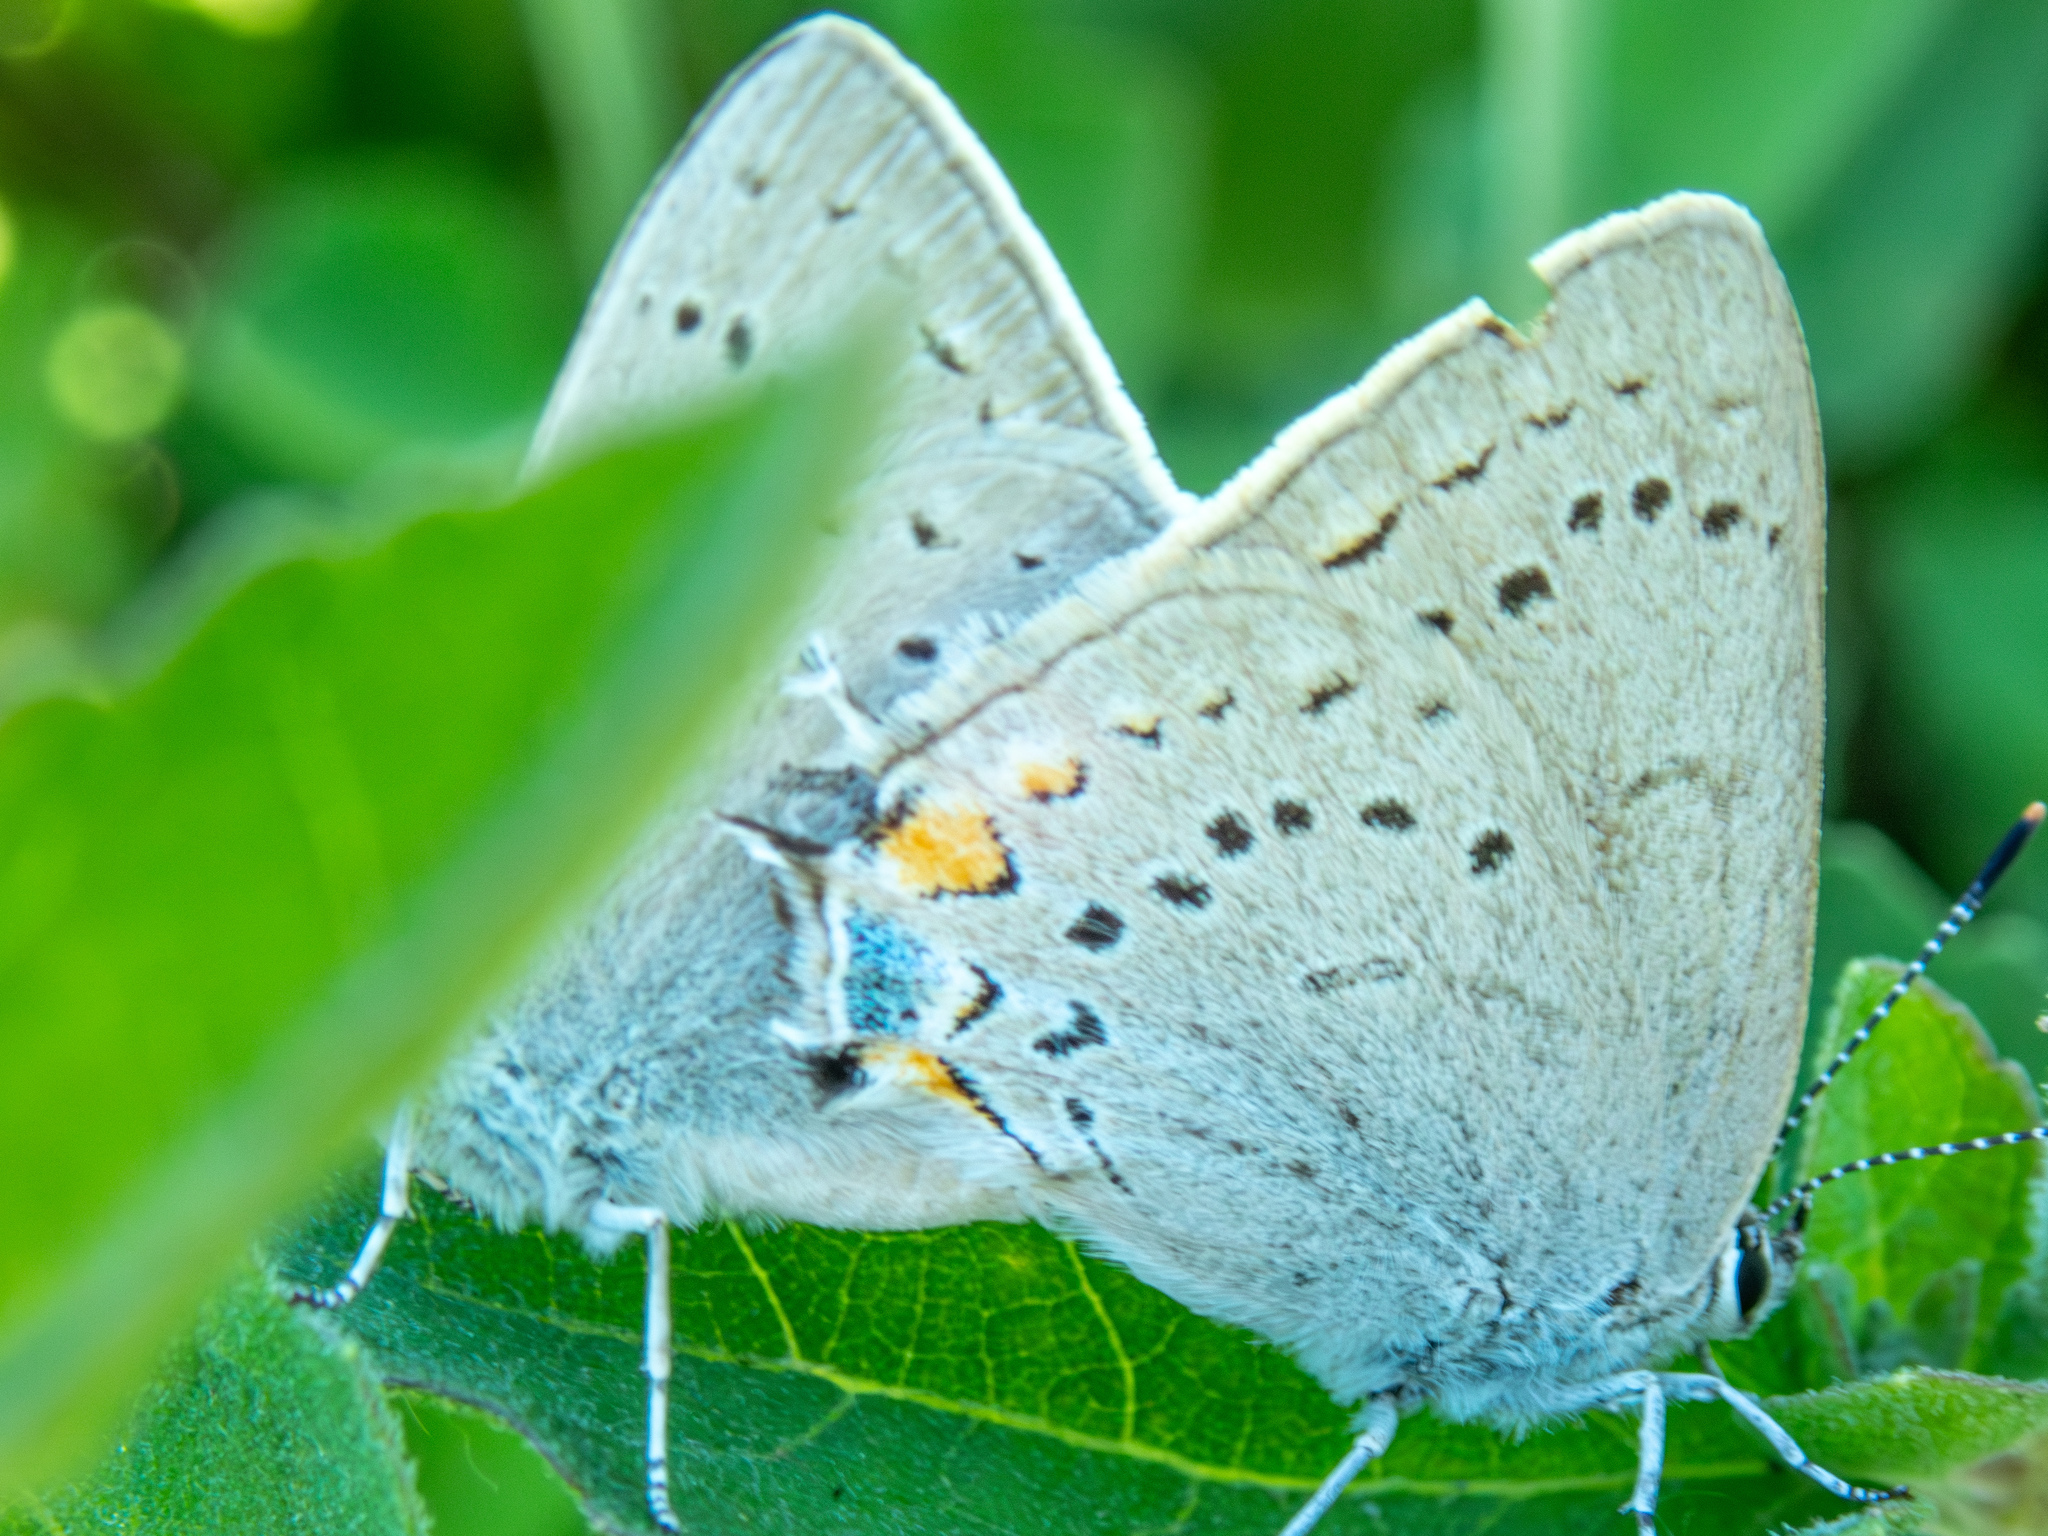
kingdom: Animalia
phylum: Arthropoda
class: Insecta
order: Lepidoptera
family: Lycaenidae
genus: Strymon
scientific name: Strymon acadica
